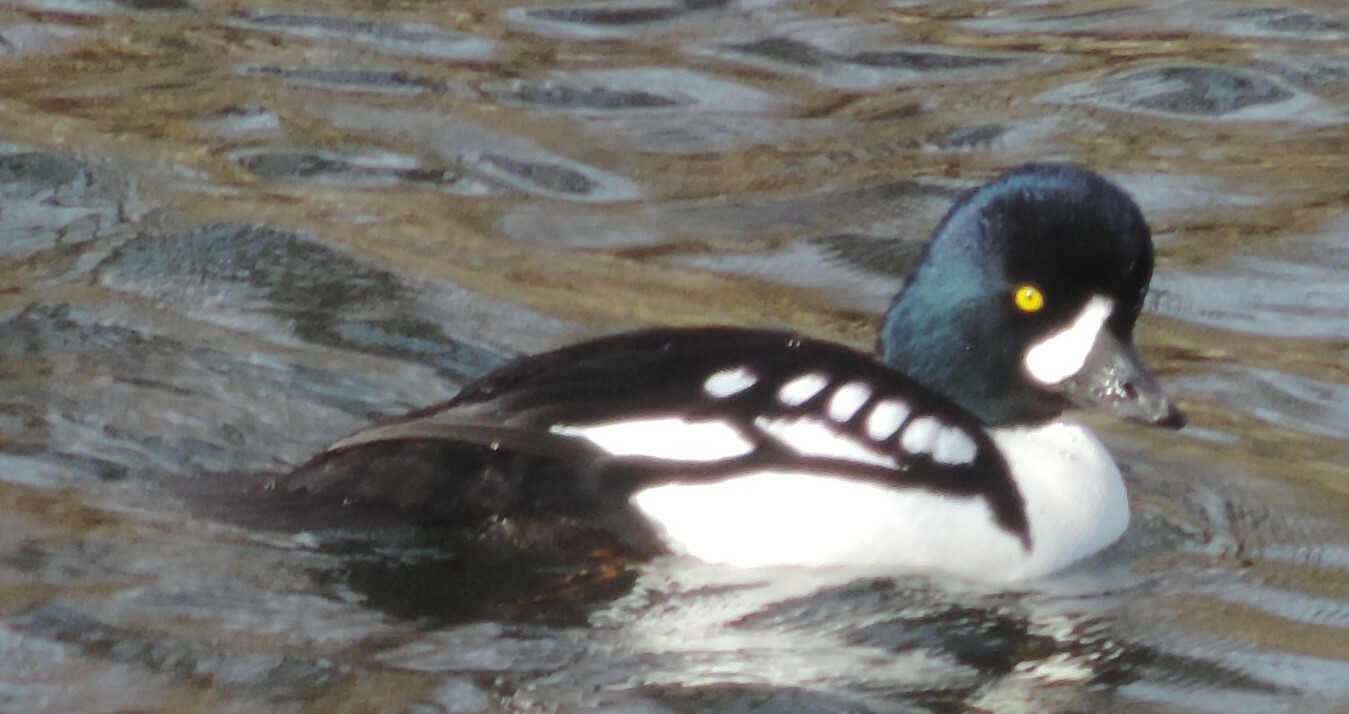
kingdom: Animalia
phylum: Chordata
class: Aves
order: Anseriformes
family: Anatidae
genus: Bucephala
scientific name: Bucephala islandica
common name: Barrow's goldeneye
